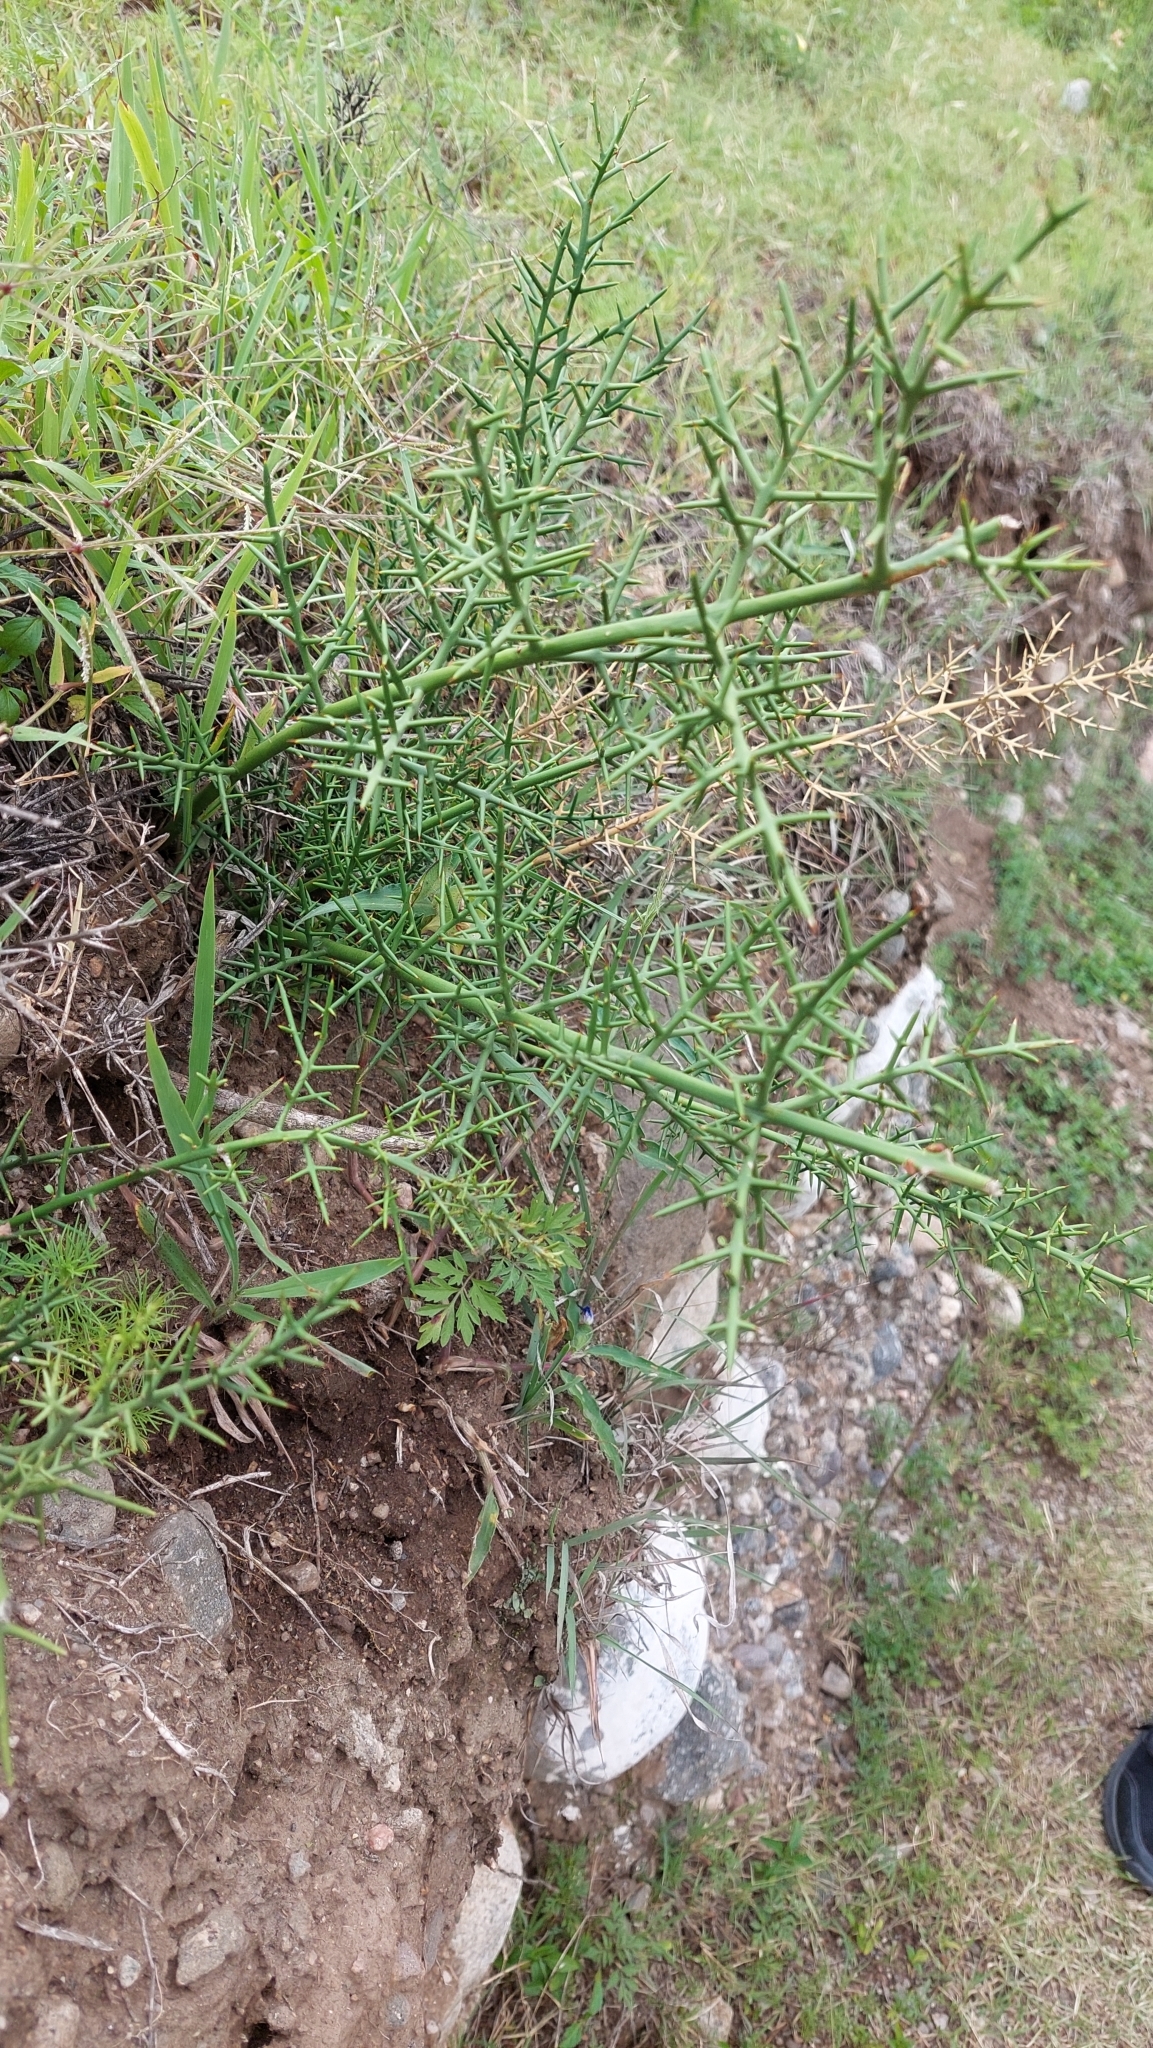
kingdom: Plantae
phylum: Tracheophyta
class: Magnoliopsida
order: Rosales
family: Rhamnaceae
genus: Colletia
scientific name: Colletia spinosissima
